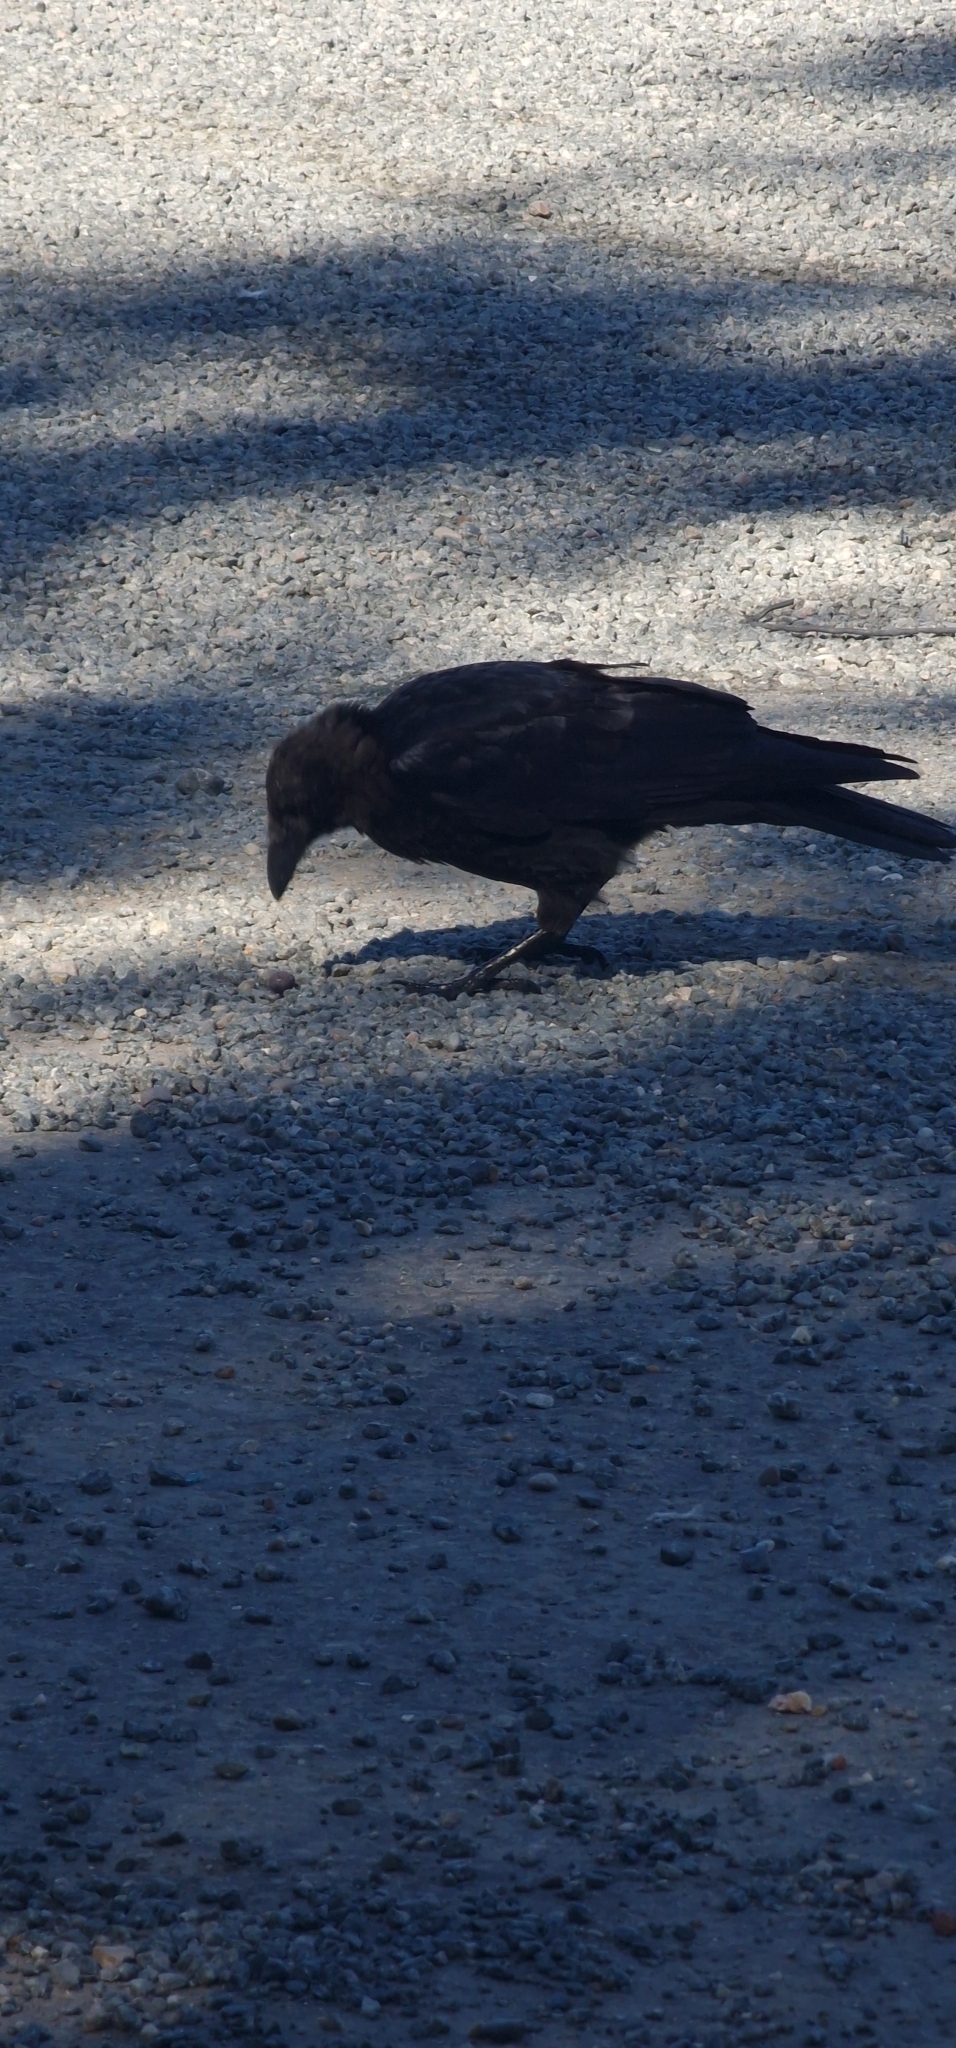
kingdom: Animalia
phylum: Chordata
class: Aves
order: Passeriformes
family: Corvidae
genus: Corvus
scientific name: Corvus corone
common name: Carrion crow
